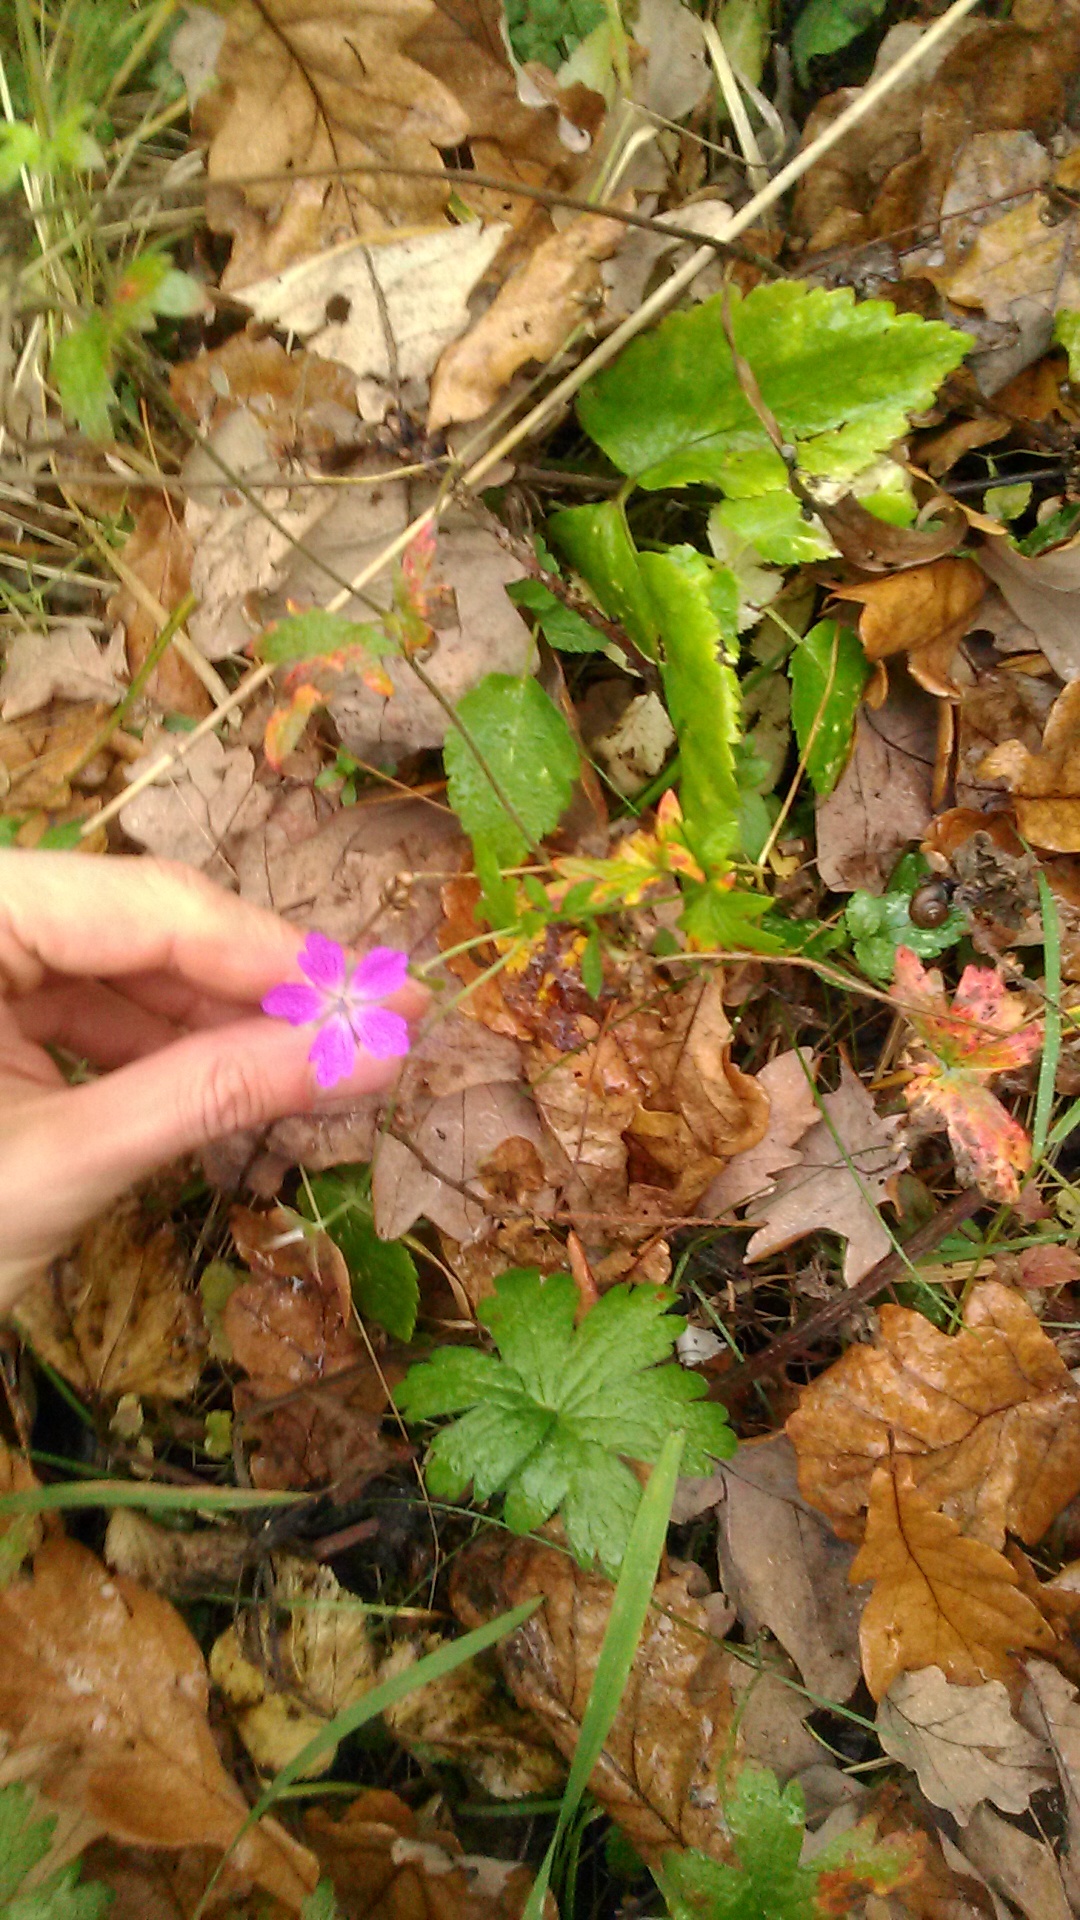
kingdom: Plantae
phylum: Tracheophyta
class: Magnoliopsida
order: Geraniales
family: Geraniaceae
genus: Geranium
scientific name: Geranium palustre
